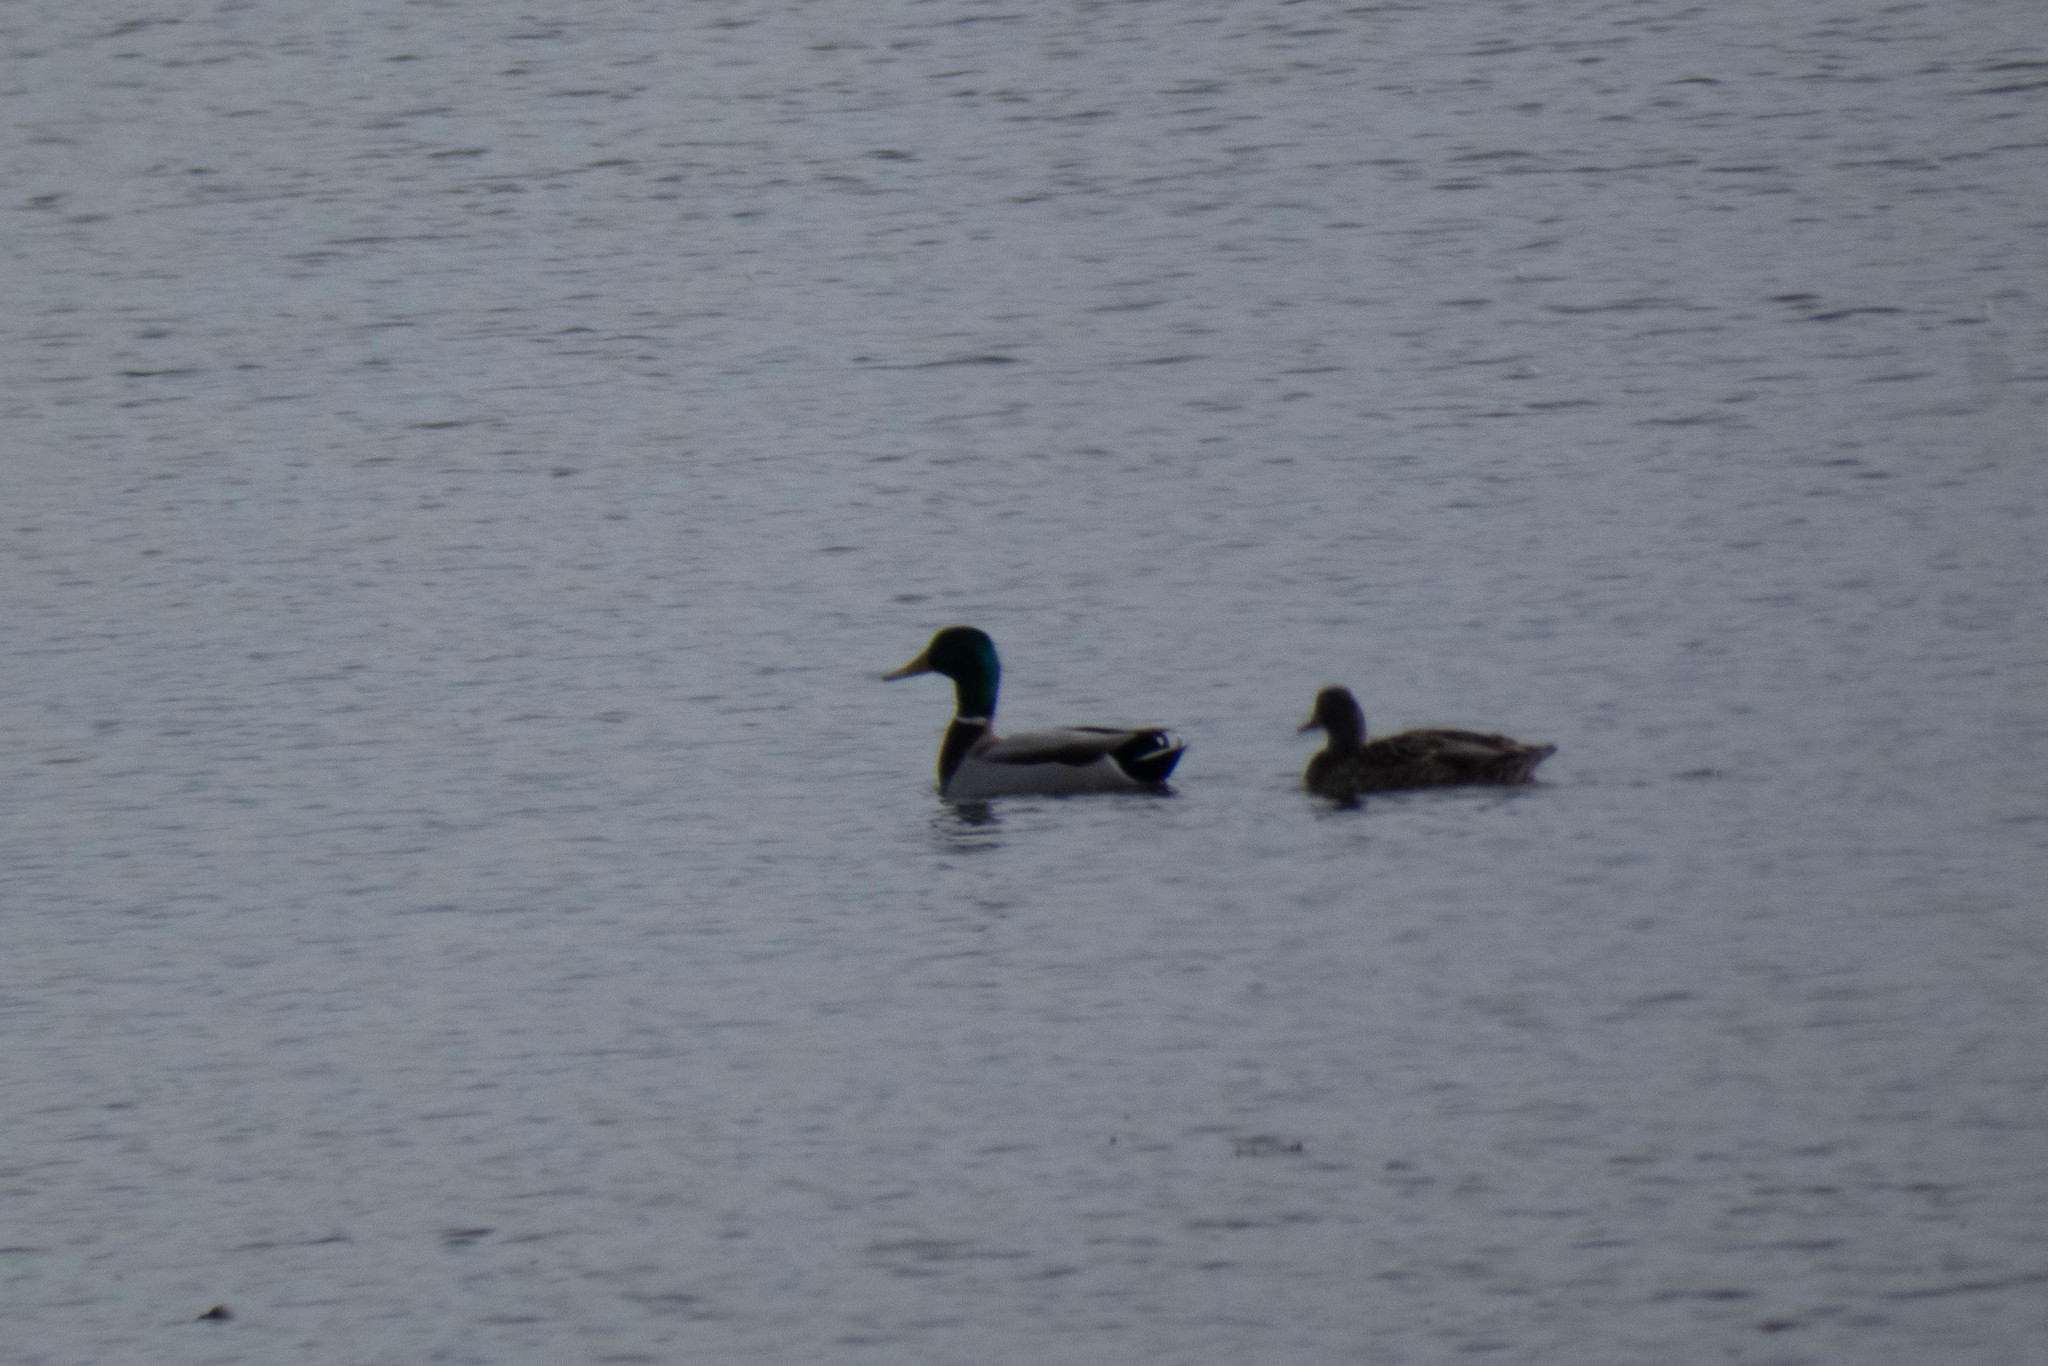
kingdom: Animalia
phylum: Chordata
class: Aves
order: Anseriformes
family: Anatidae
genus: Anas
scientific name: Anas platyrhynchos
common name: Mallard
